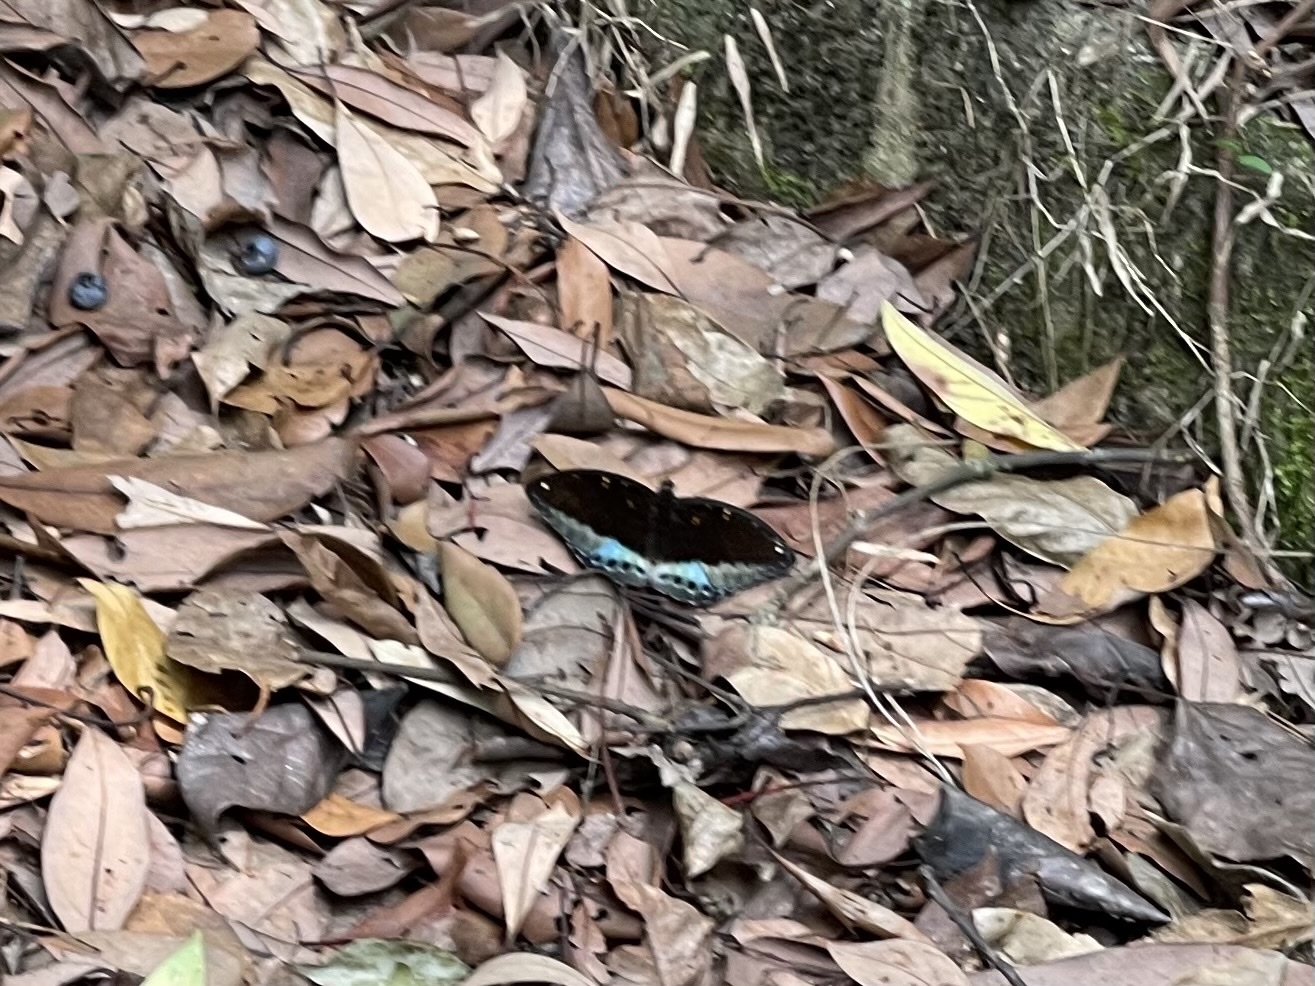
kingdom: Animalia
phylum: Arthropoda
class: Insecta
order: Lepidoptera
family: Nymphalidae
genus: Lexias
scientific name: Lexias pardalis
